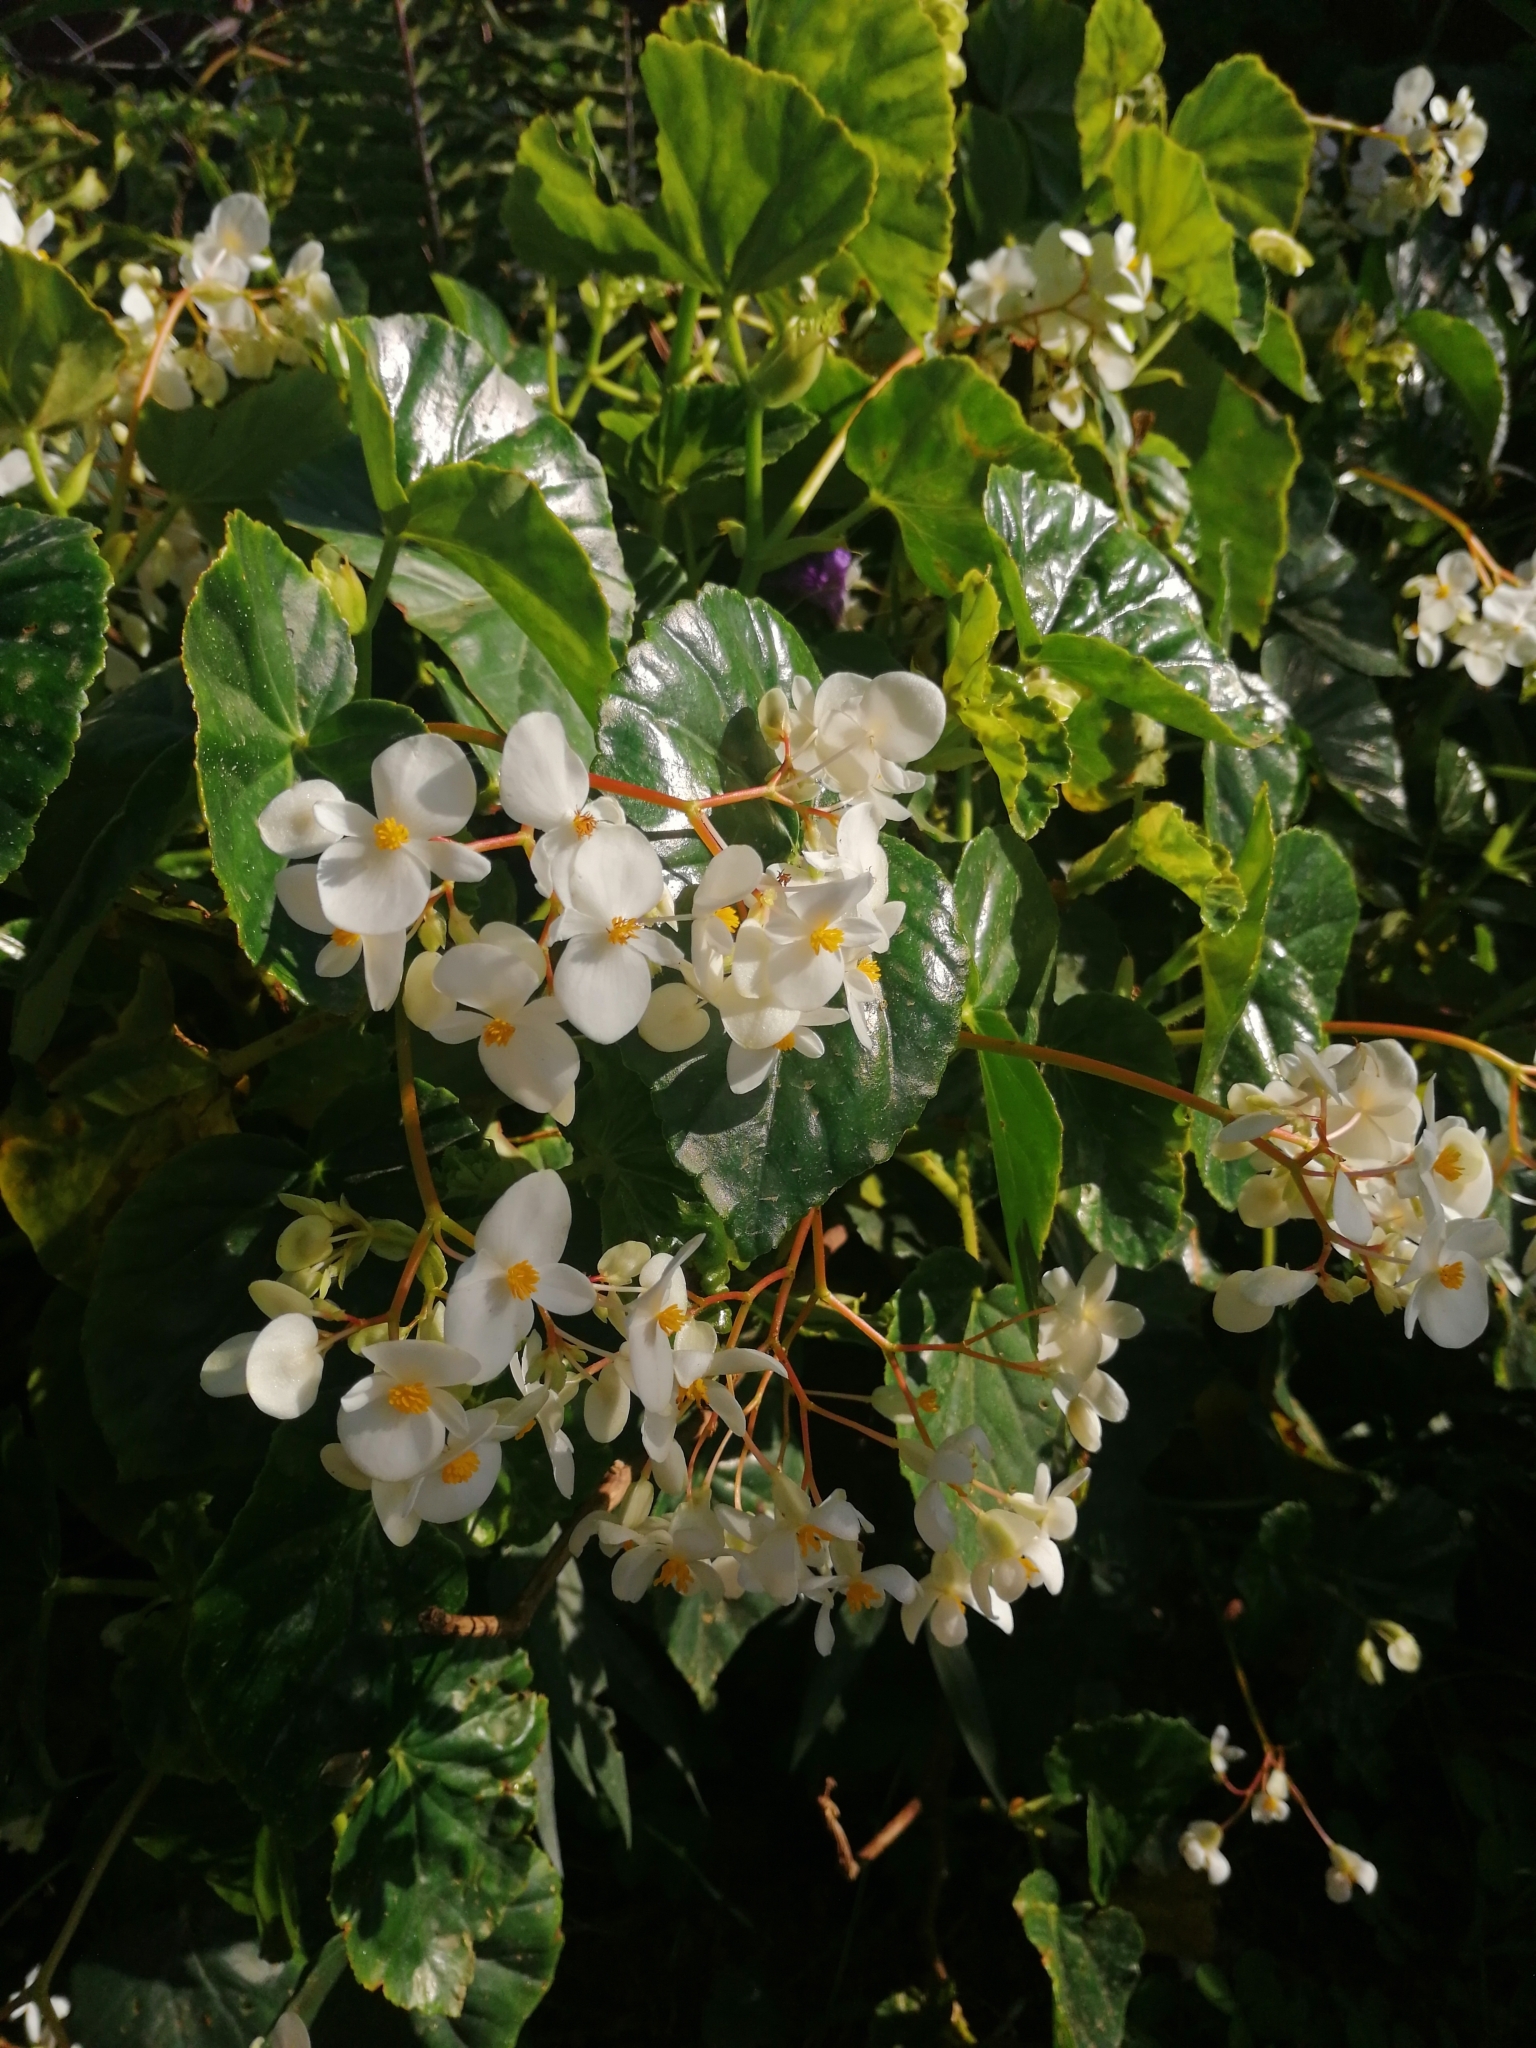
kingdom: Plantae
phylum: Tracheophyta
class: Magnoliopsida
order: Cucurbitales
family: Begoniaceae
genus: Begonia
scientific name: Begonia obliqua
